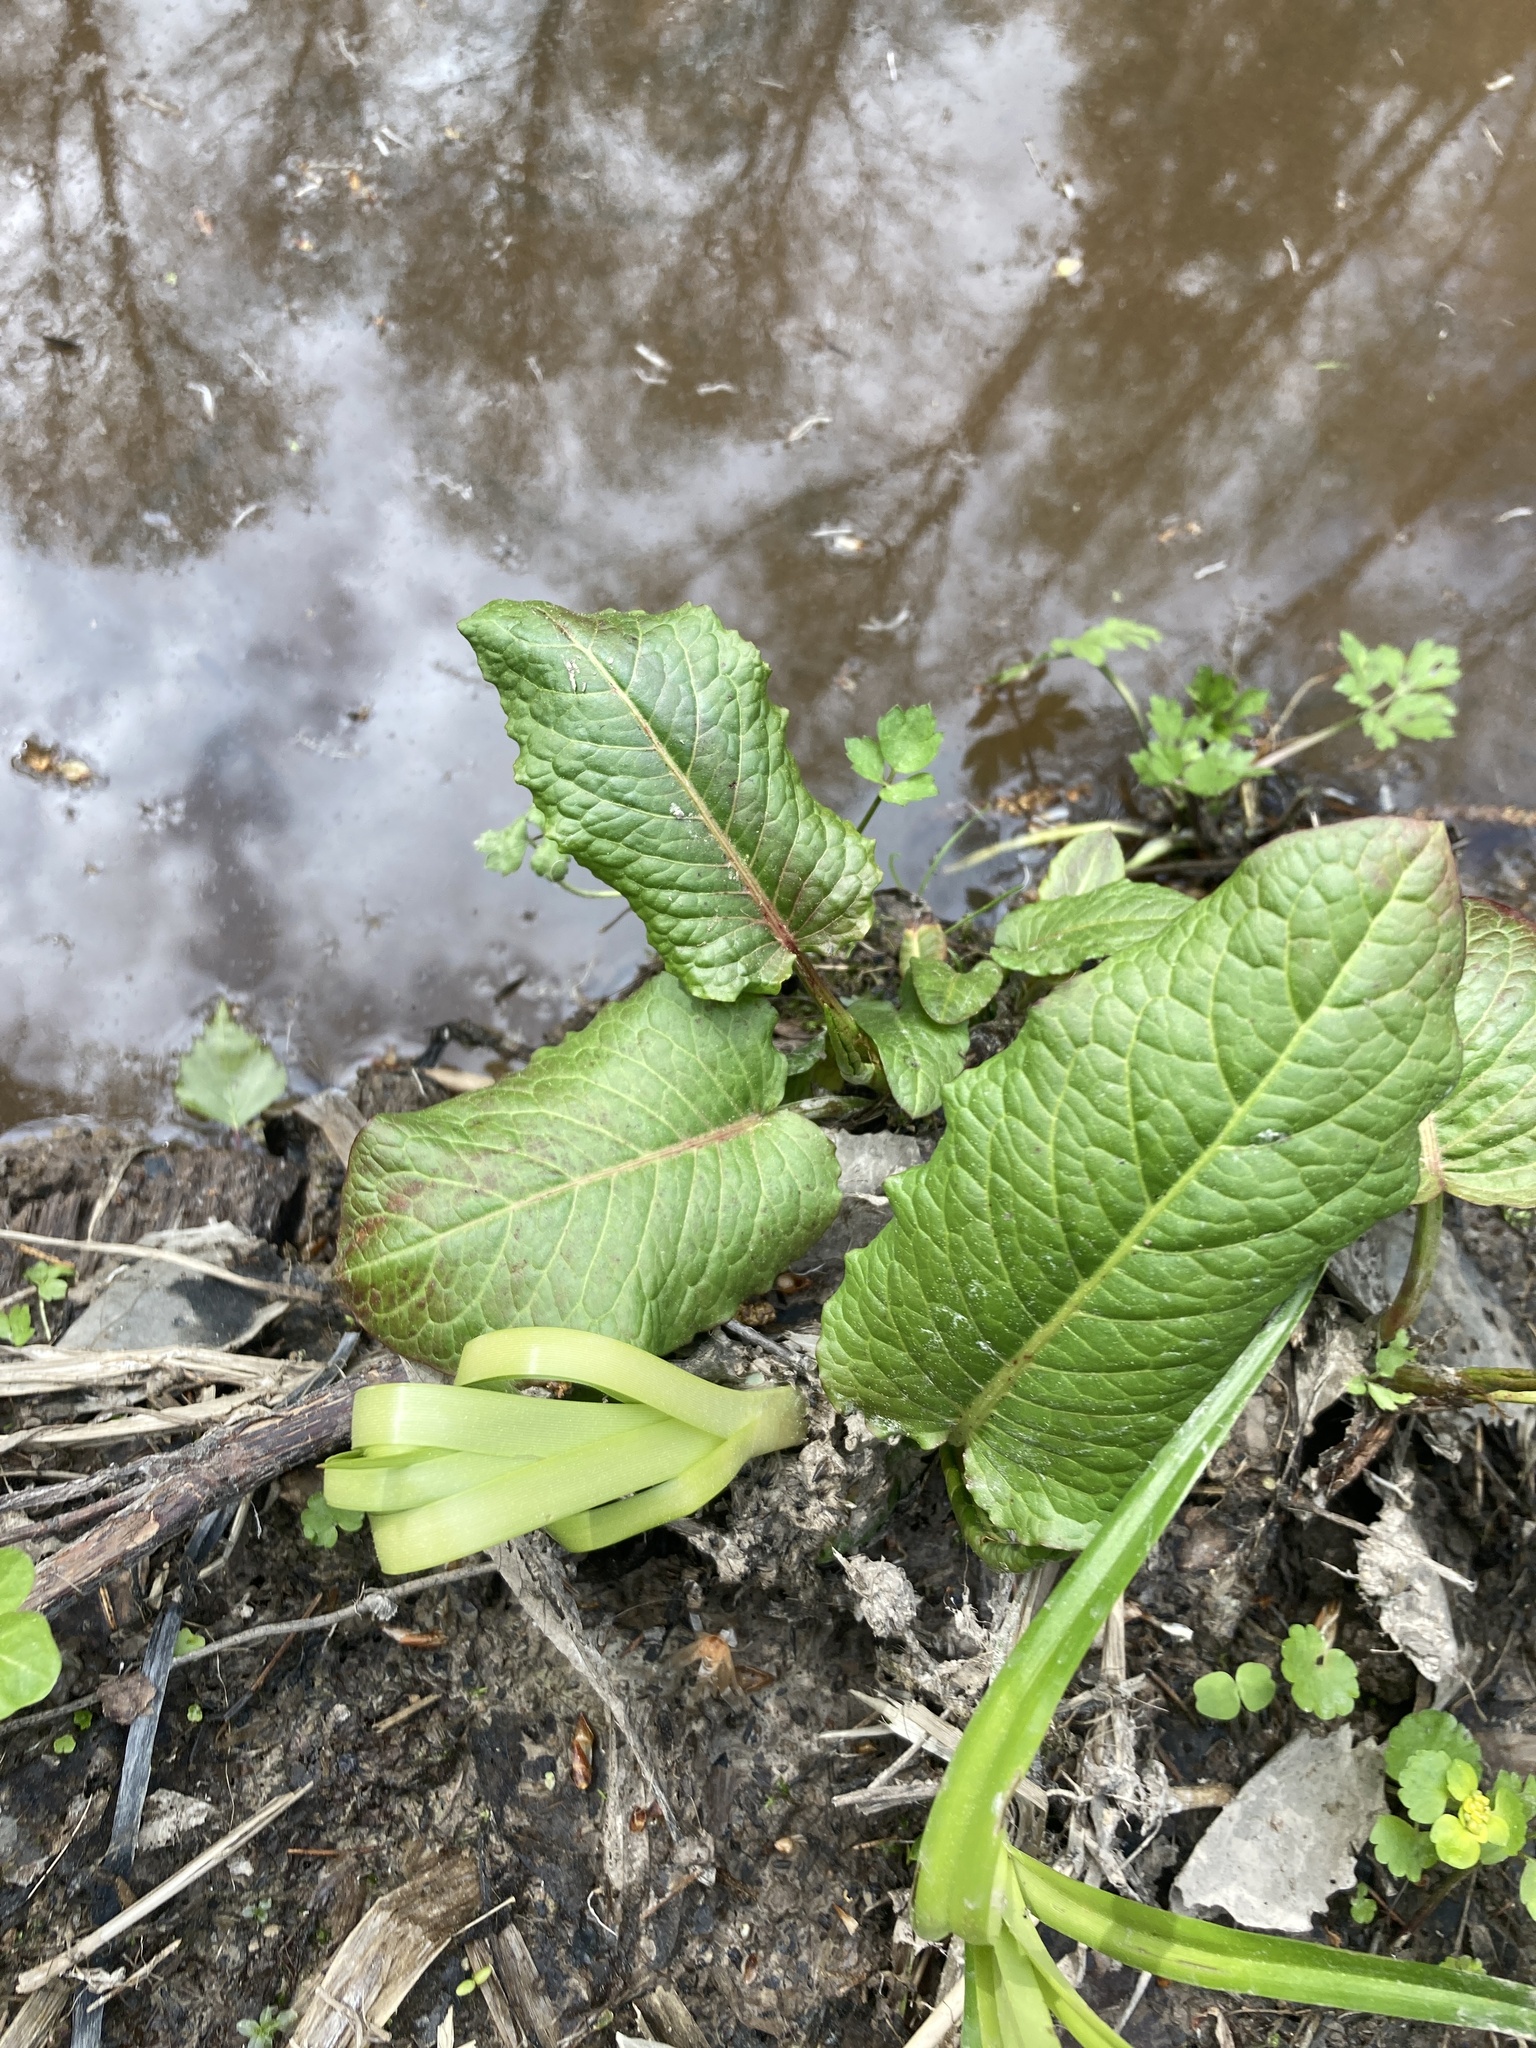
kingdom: Plantae
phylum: Tracheophyta
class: Magnoliopsida
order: Caryophyllales
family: Polygonaceae
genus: Rumex
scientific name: Rumex obtusifolius
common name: Bitter dock
